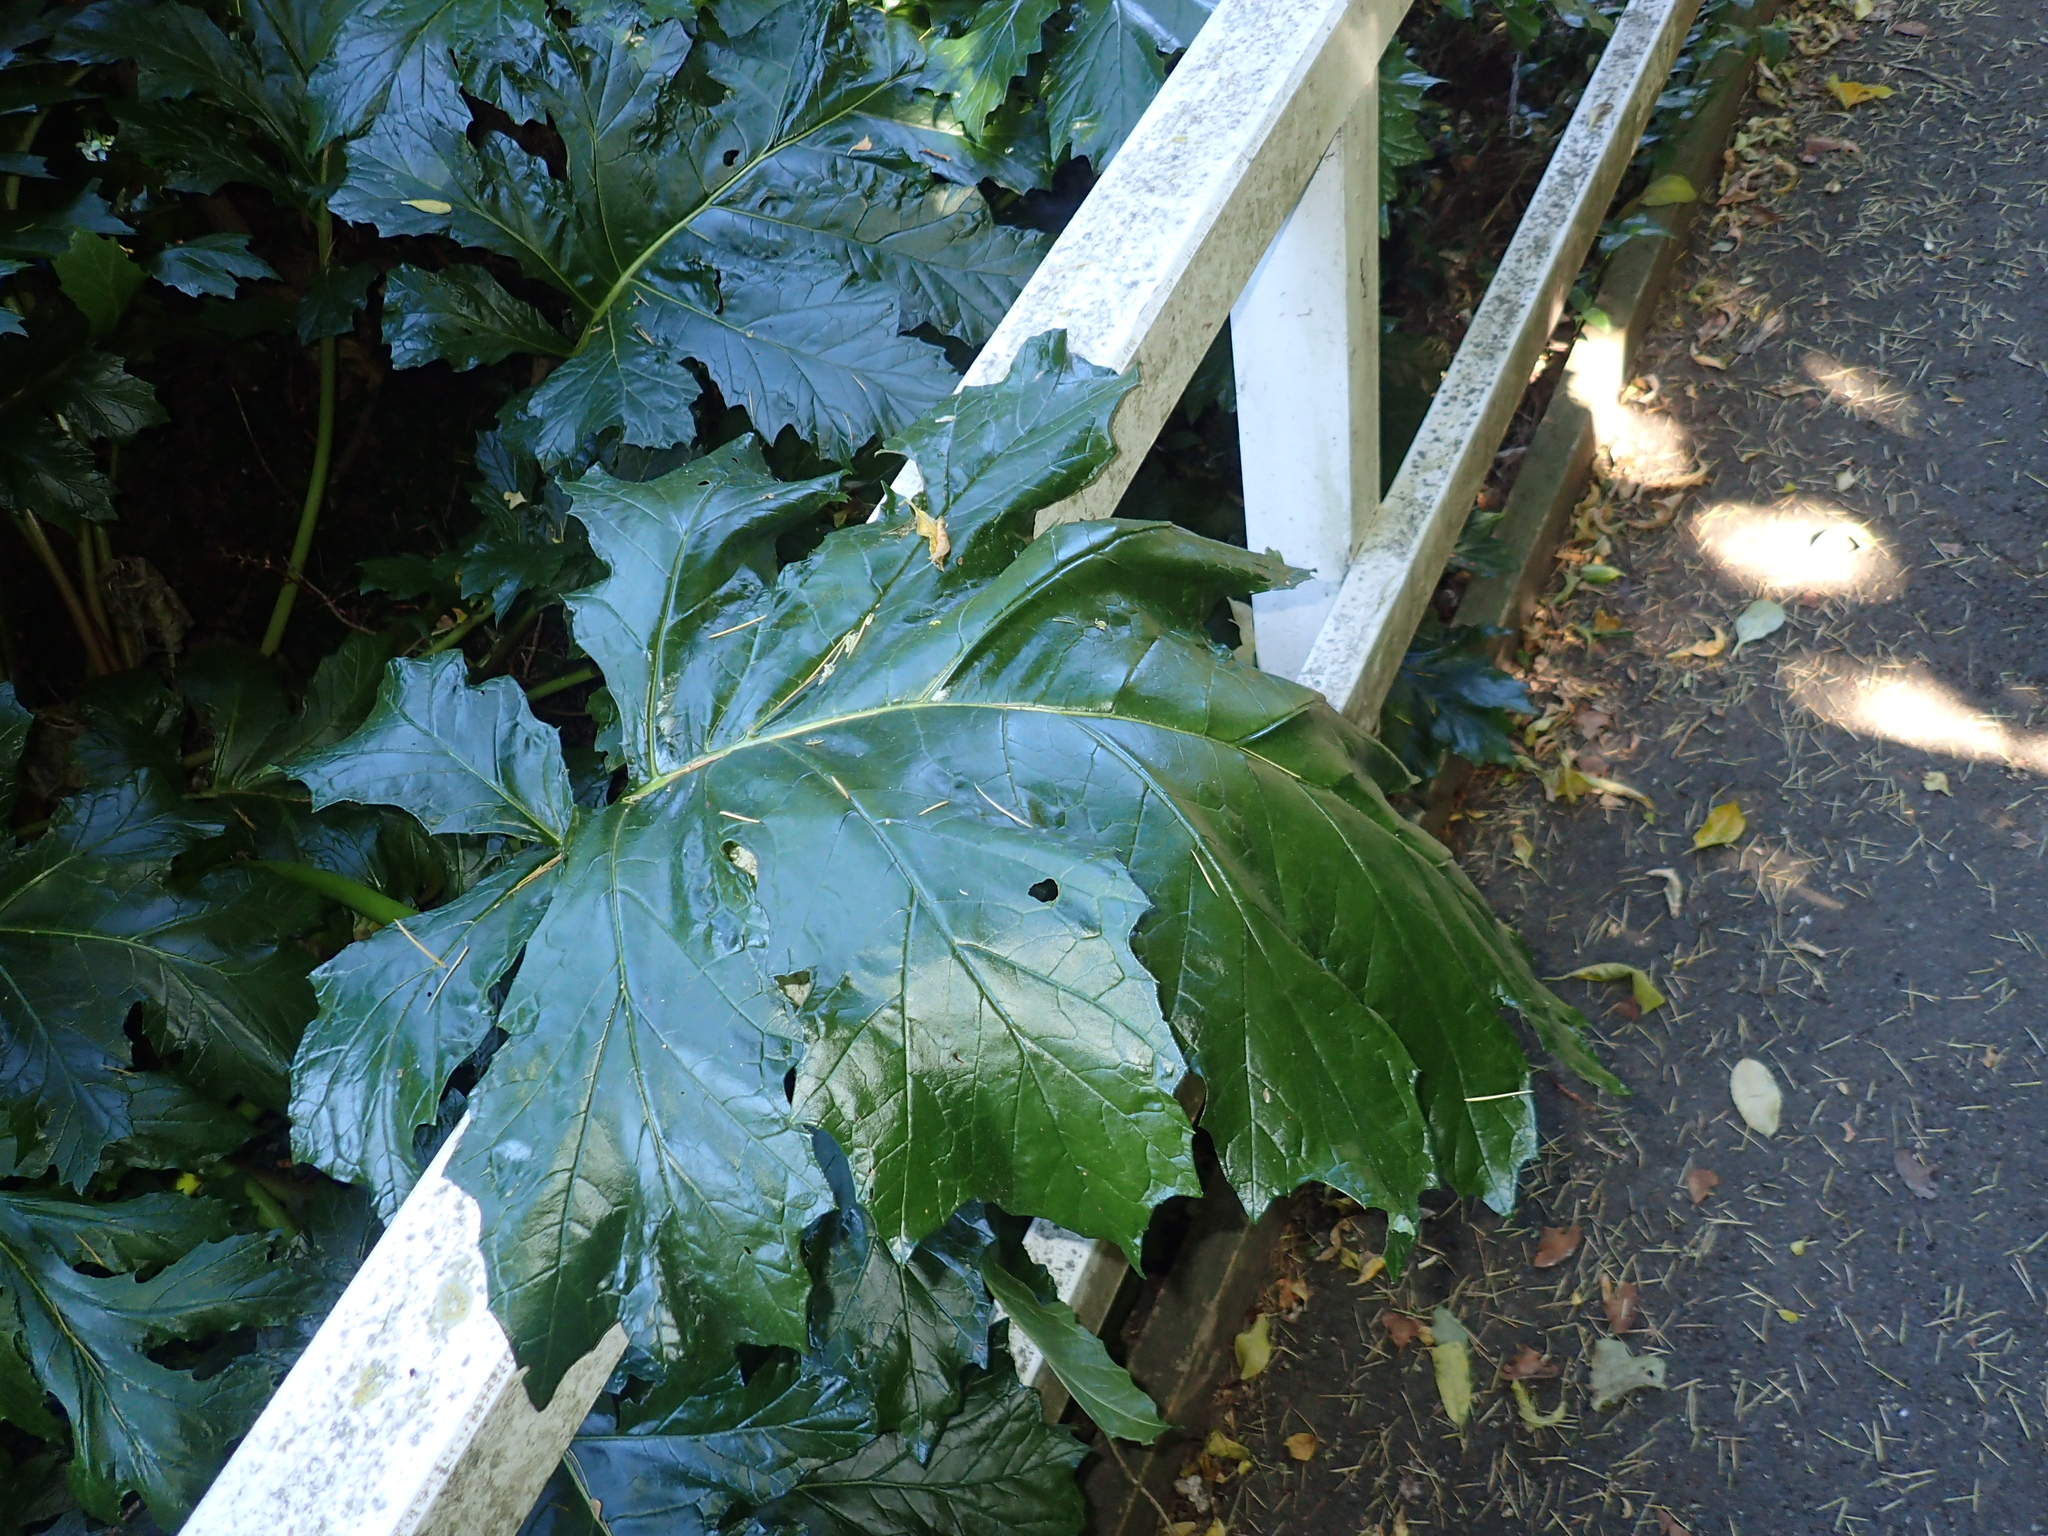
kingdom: Plantae
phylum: Tracheophyta
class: Magnoliopsida
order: Lamiales
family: Acanthaceae
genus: Acanthus
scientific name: Acanthus mollis
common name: Bear's-breech
